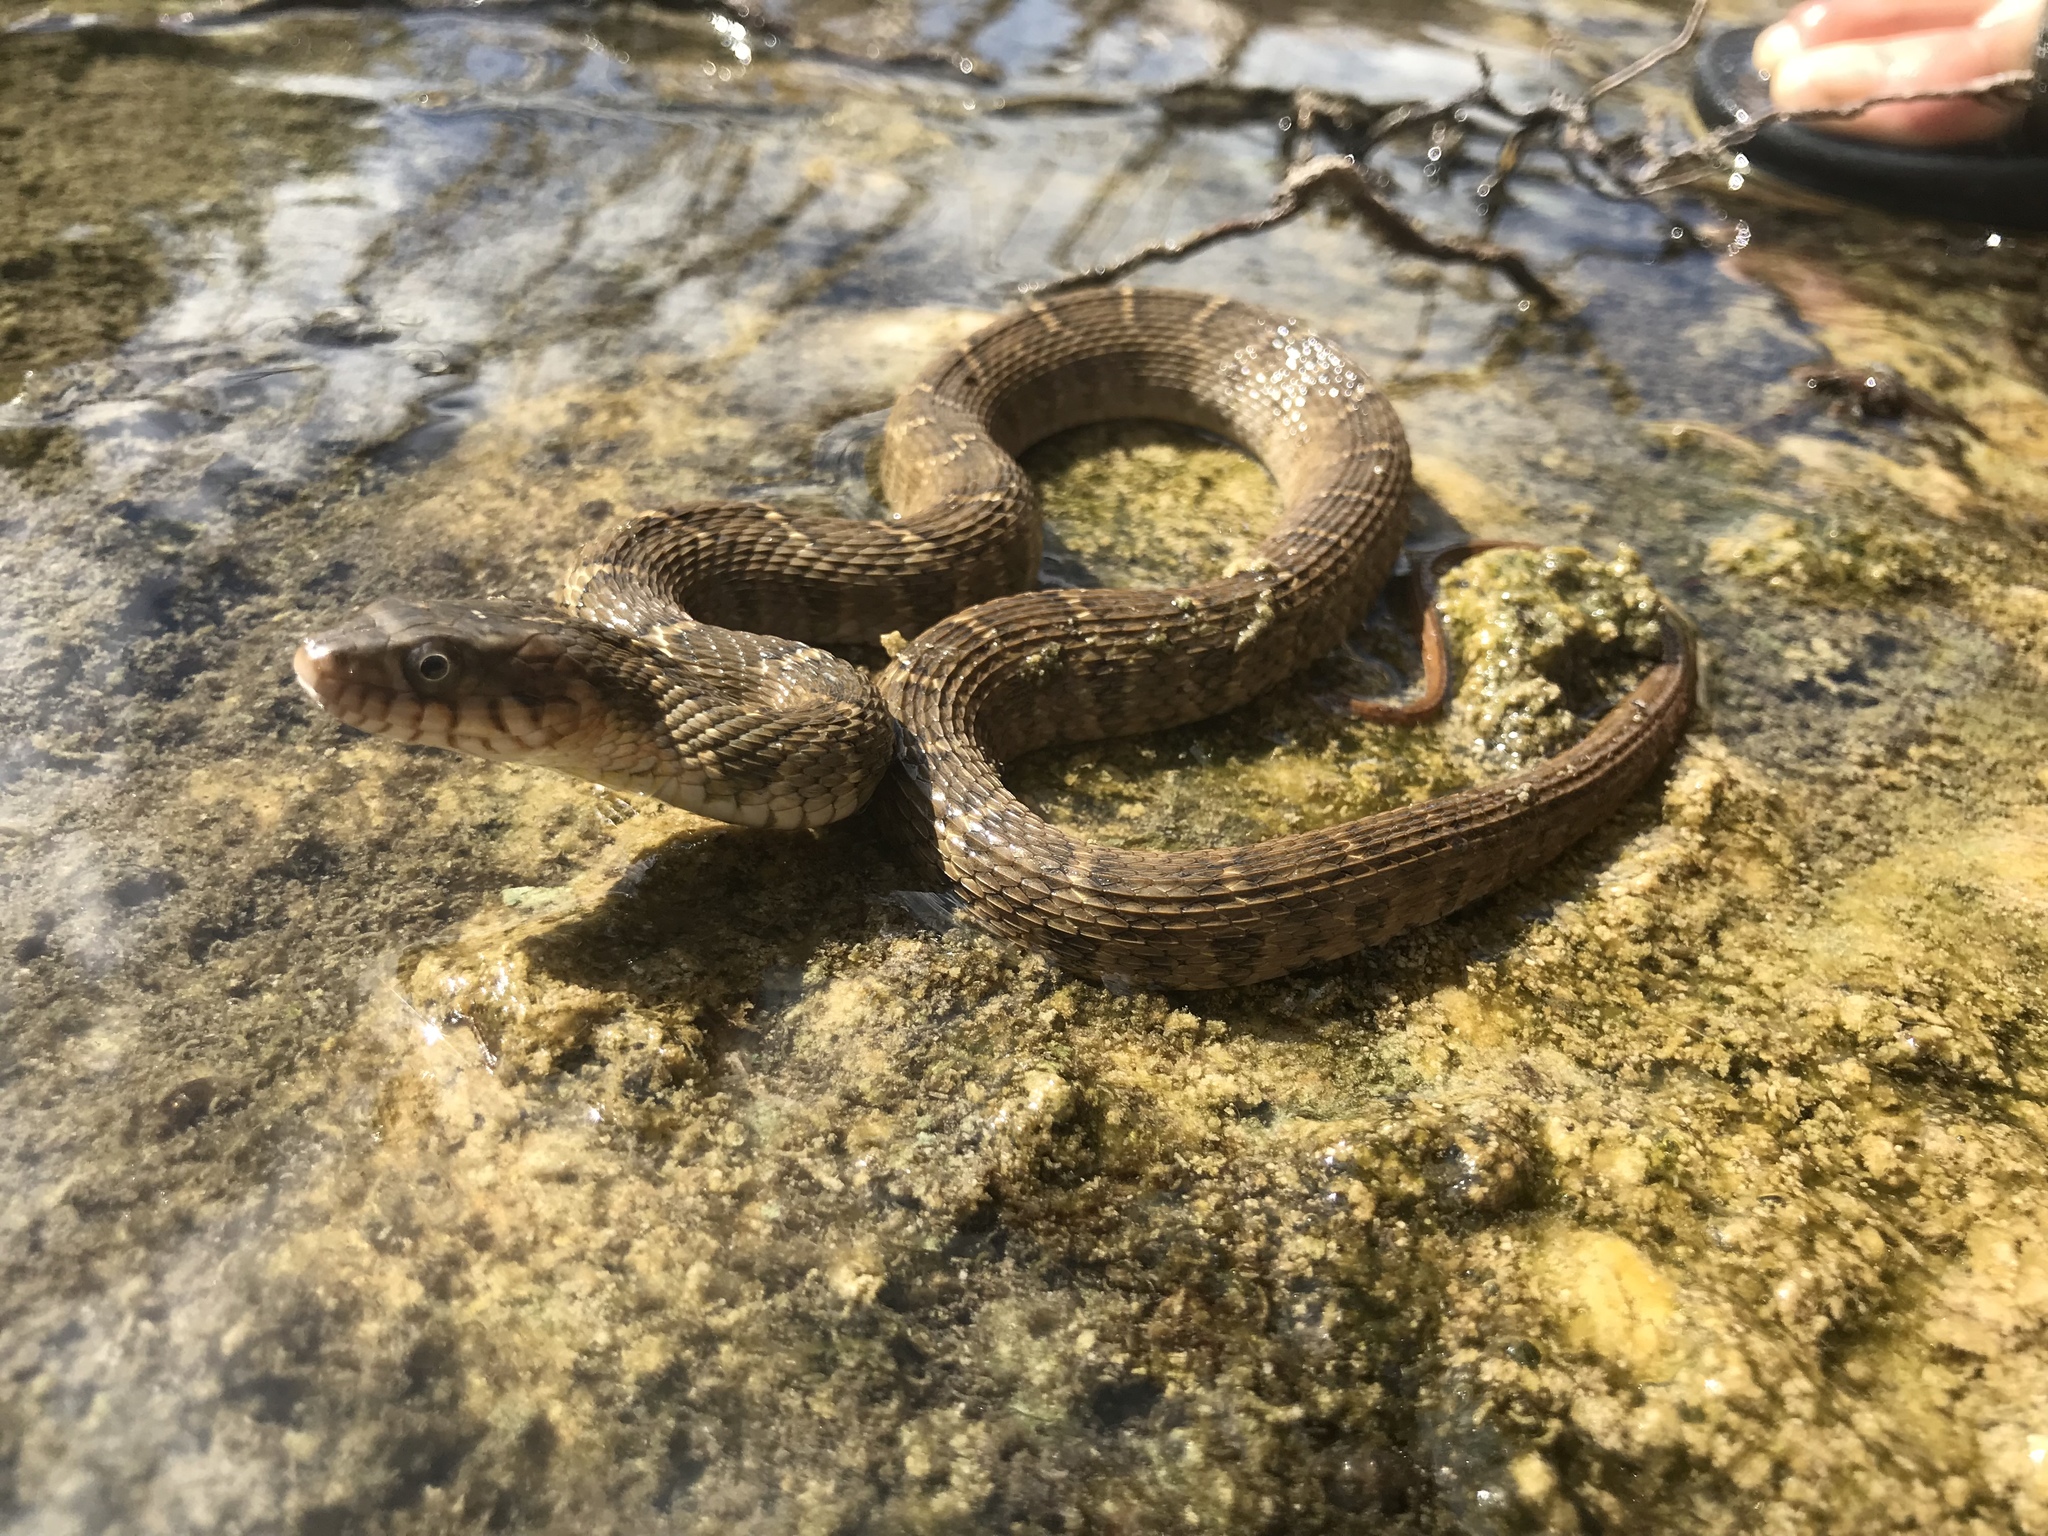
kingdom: Animalia
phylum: Chordata
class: Squamata
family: Colubridae
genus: Nerodia
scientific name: Nerodia erythrogaster
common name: Plainbelly water snake
